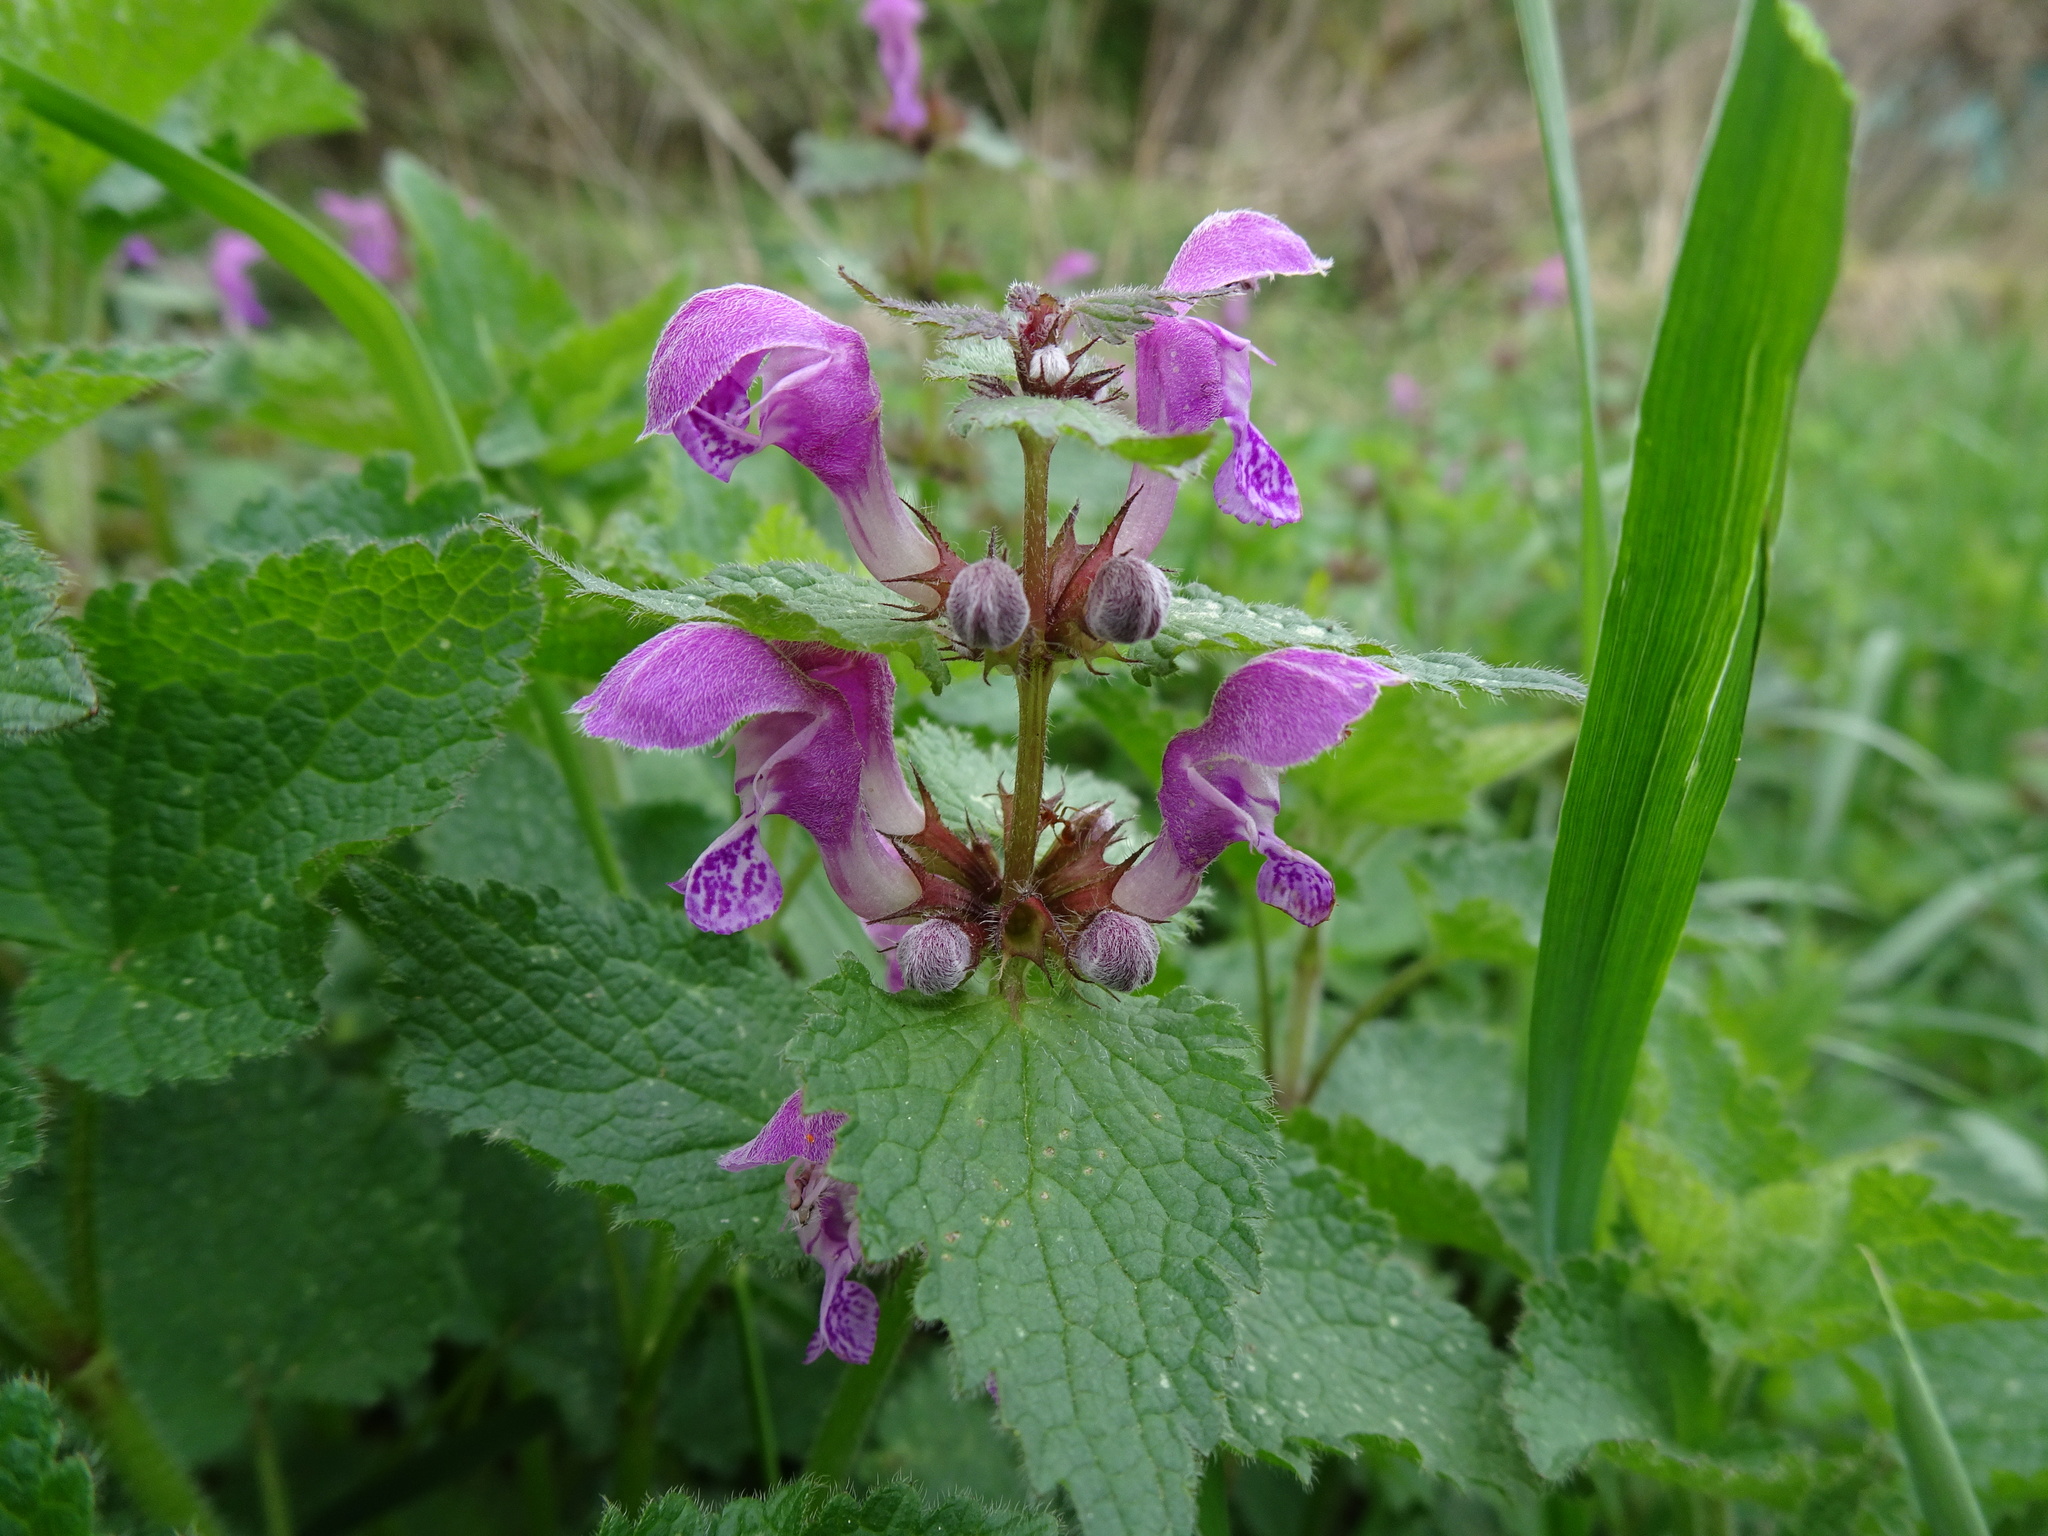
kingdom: Plantae
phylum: Tracheophyta
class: Magnoliopsida
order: Lamiales
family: Lamiaceae
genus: Lamium
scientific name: Lamium maculatum
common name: Spotted dead-nettle
